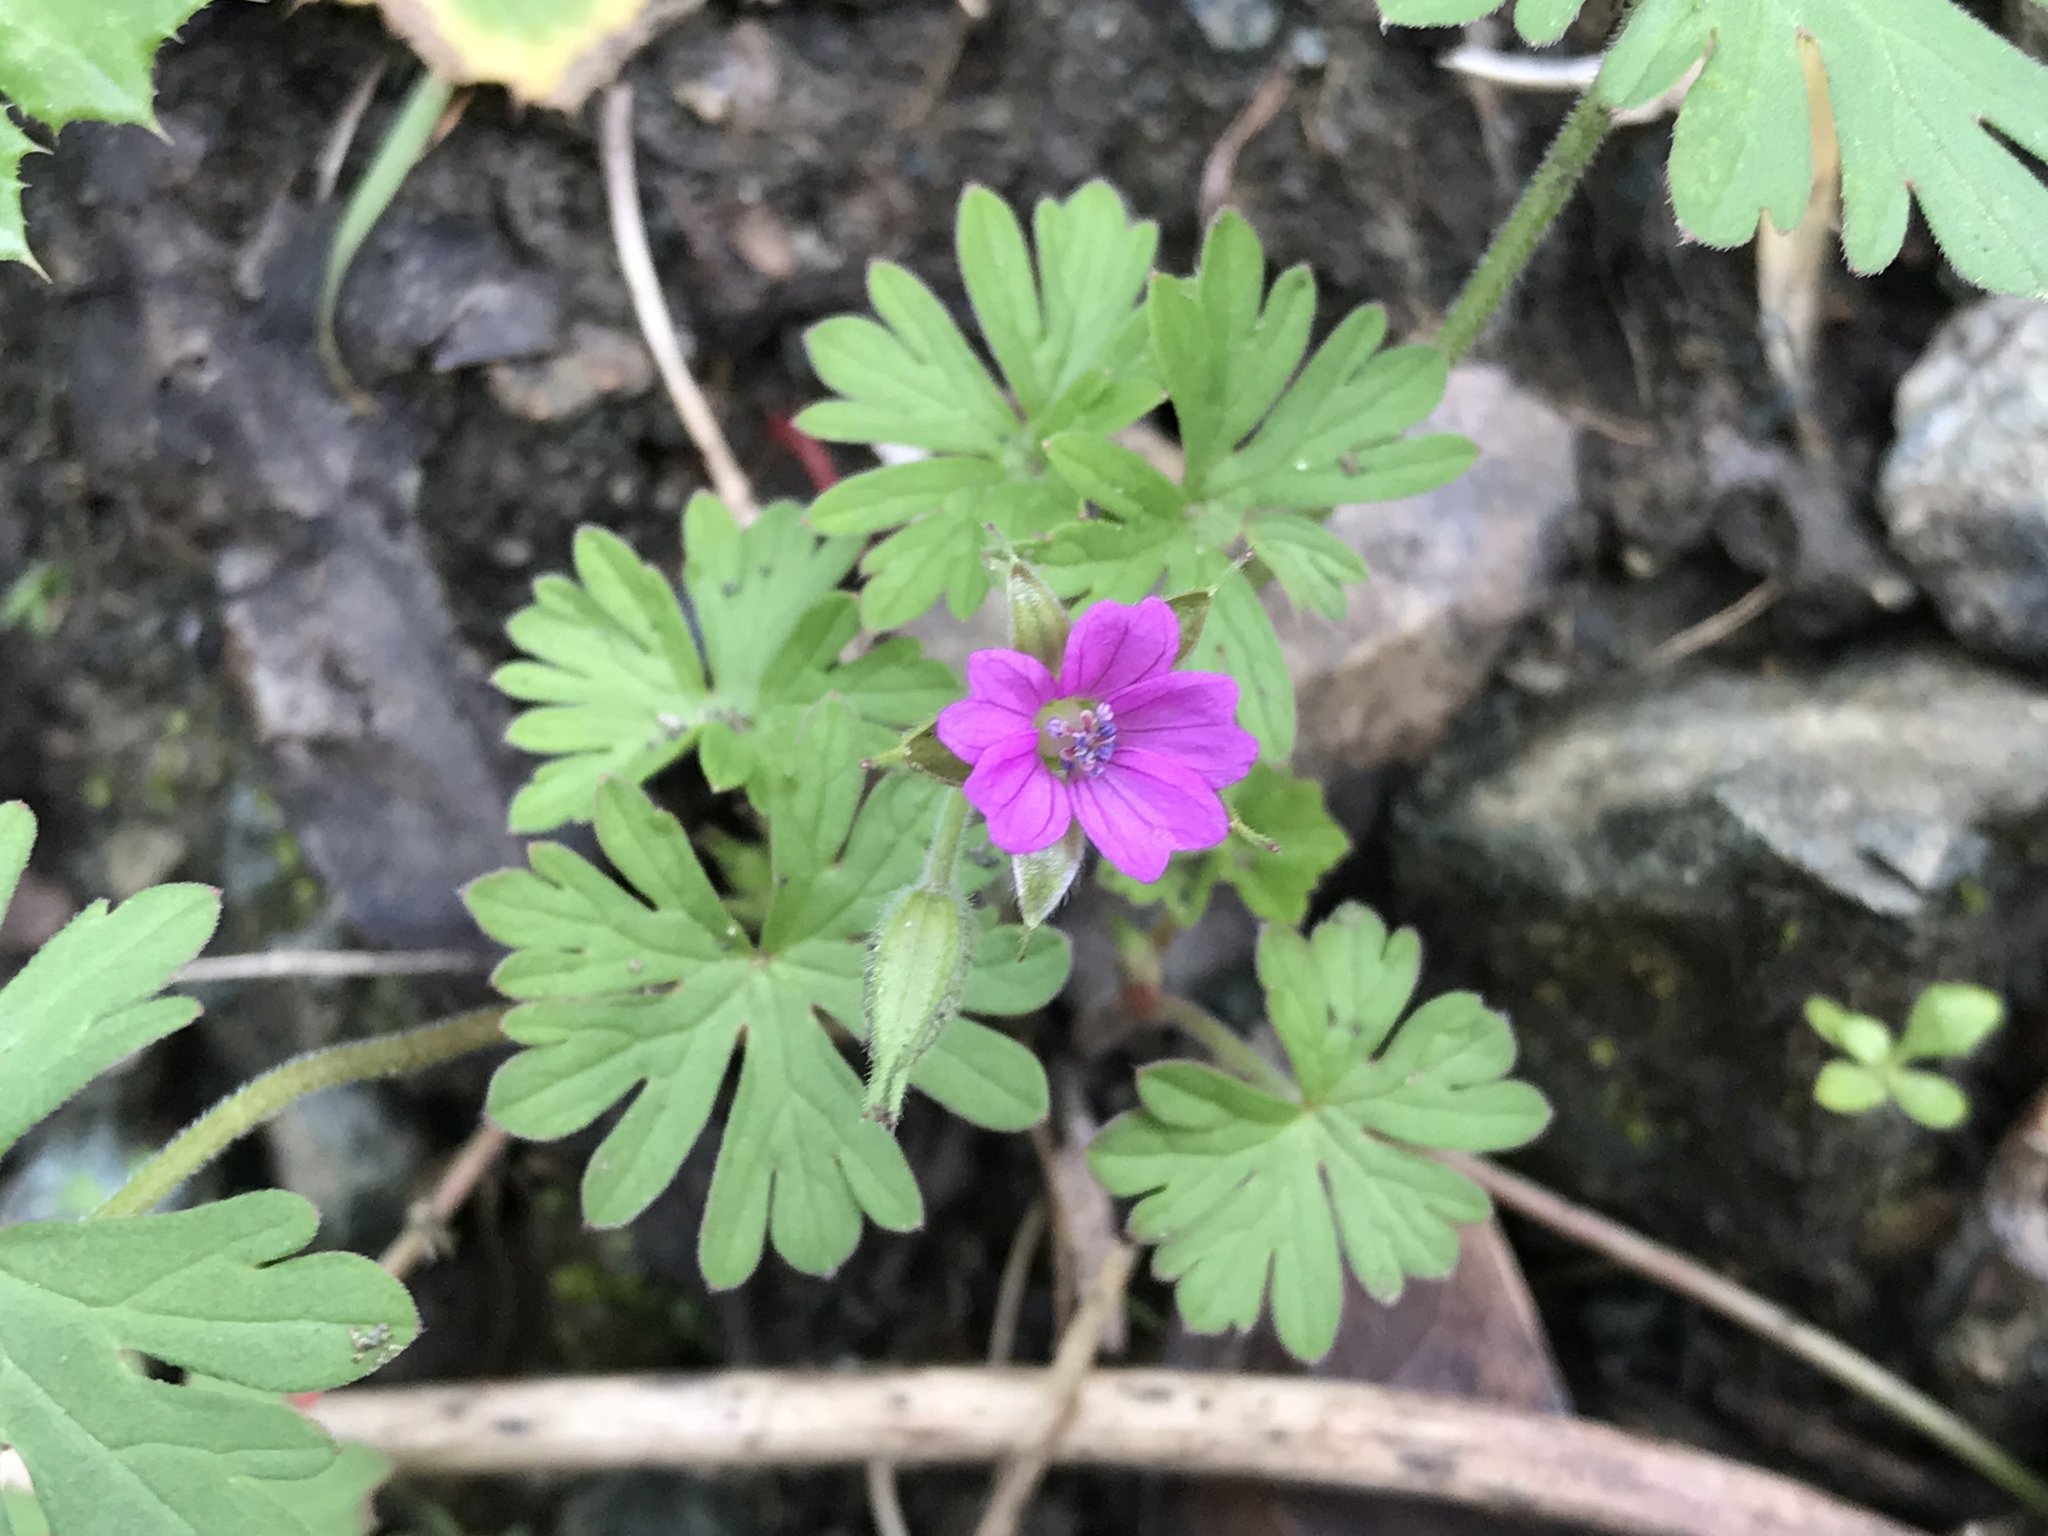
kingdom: Plantae
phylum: Tracheophyta
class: Magnoliopsida
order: Geraniales
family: Geraniaceae
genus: Geranium
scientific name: Geranium dissectum
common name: Cut-leaved crane's-bill
